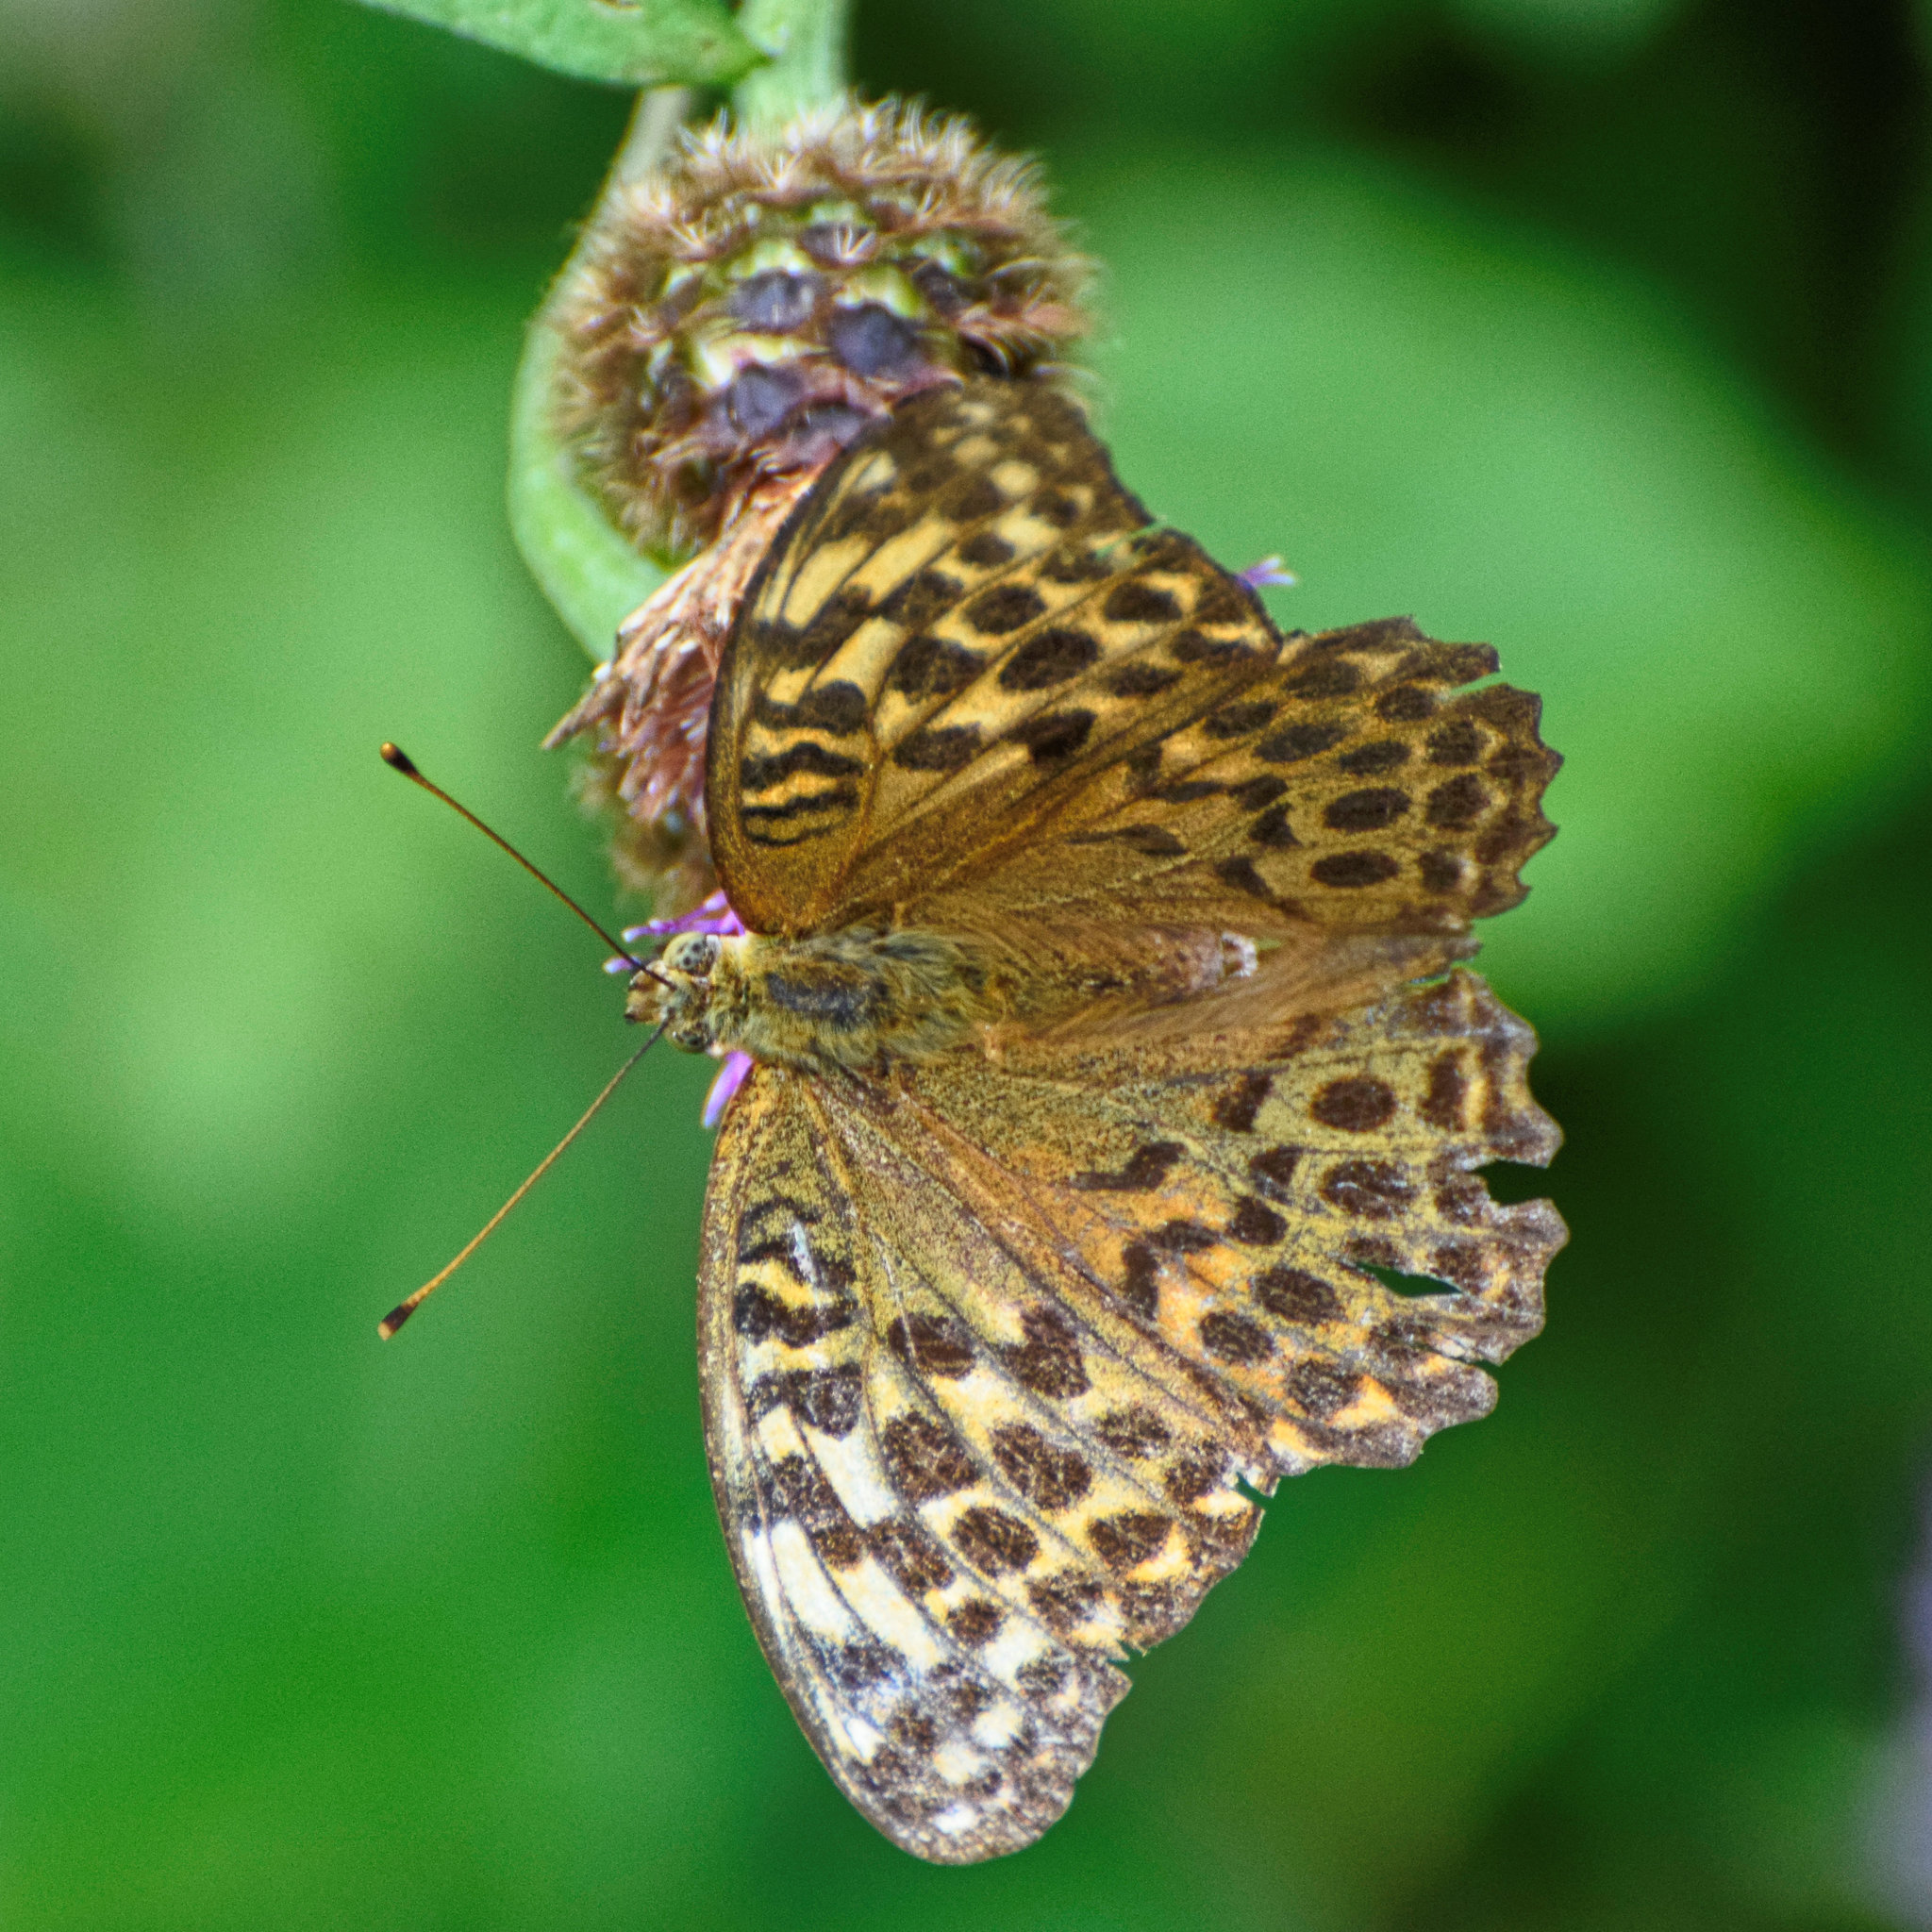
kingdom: Animalia
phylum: Arthropoda
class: Insecta
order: Lepidoptera
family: Nymphalidae
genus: Argynnis
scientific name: Argynnis paphia
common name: Silver-washed fritillary
